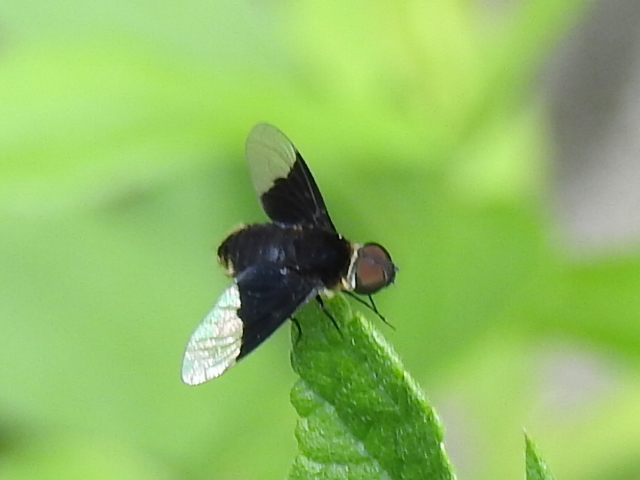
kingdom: Animalia
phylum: Arthropoda
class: Insecta
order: Diptera
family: Bombyliidae
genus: Ins
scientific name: Ins celeris
